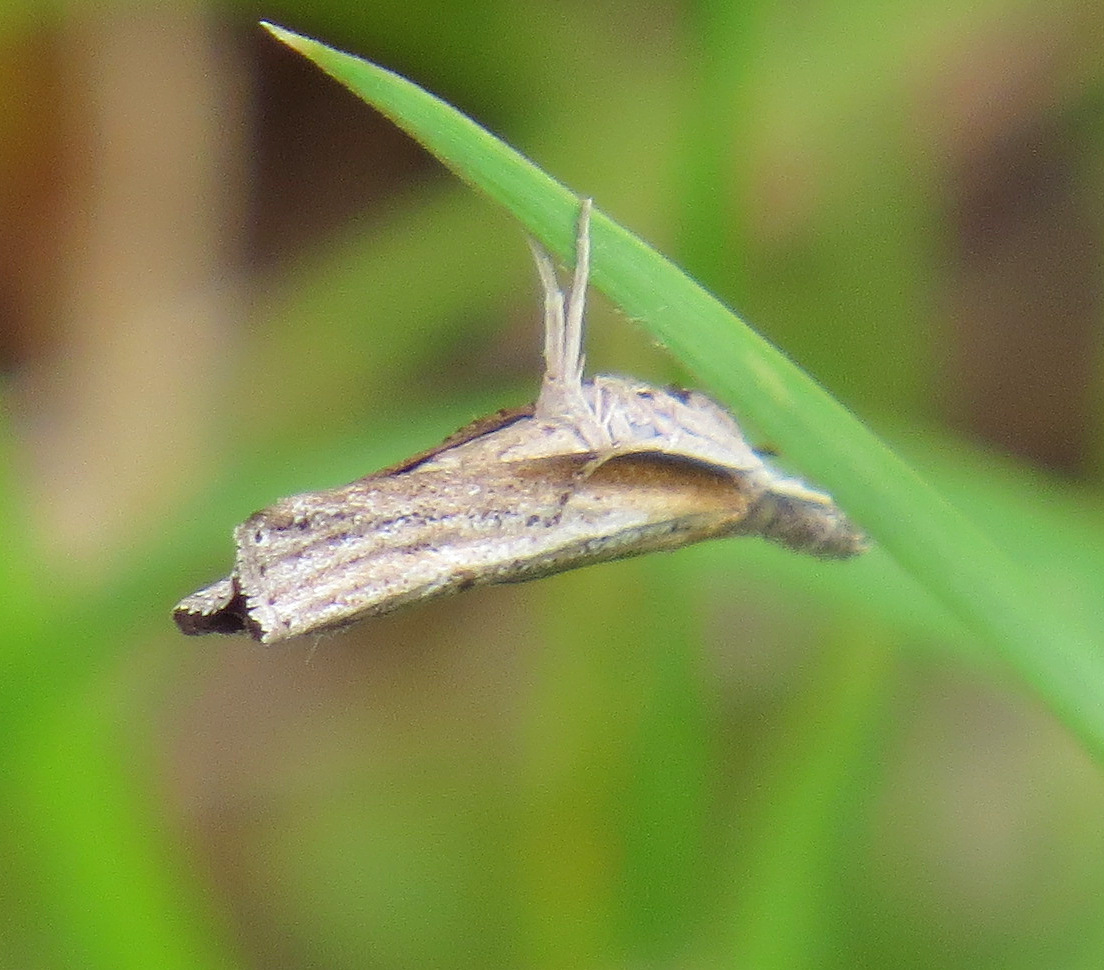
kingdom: Animalia
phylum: Arthropoda
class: Insecta
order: Lepidoptera
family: Crambidae
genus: Fissicrambus
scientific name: Fissicrambus mutabilis
